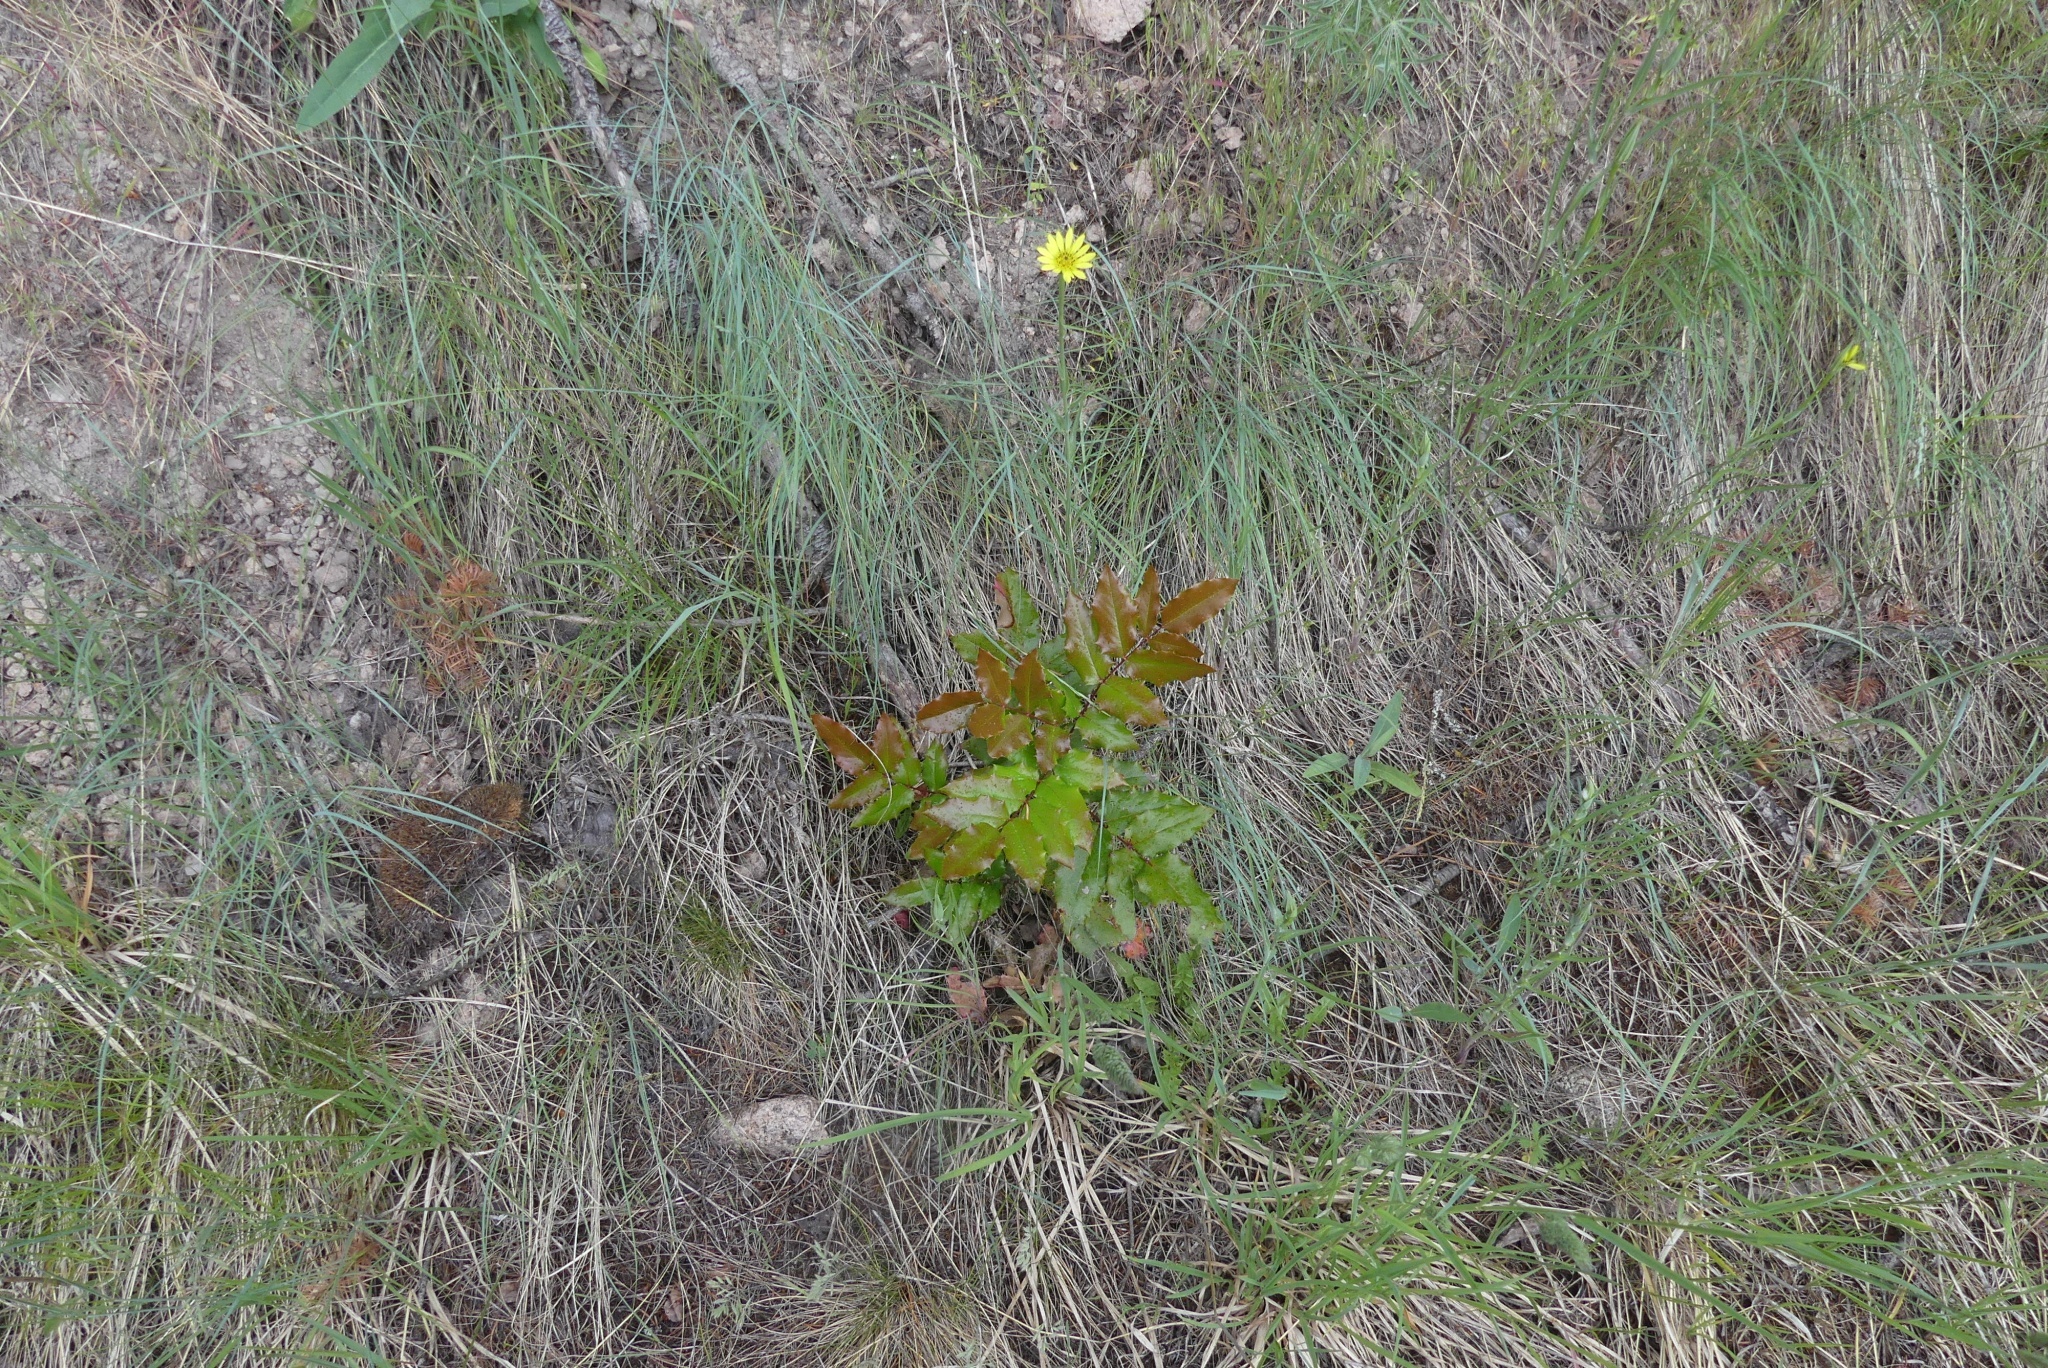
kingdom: Plantae
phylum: Tracheophyta
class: Magnoliopsida
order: Ranunculales
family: Berberidaceae
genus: Mahonia
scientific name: Mahonia aquifolium
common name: Oregon-grape
